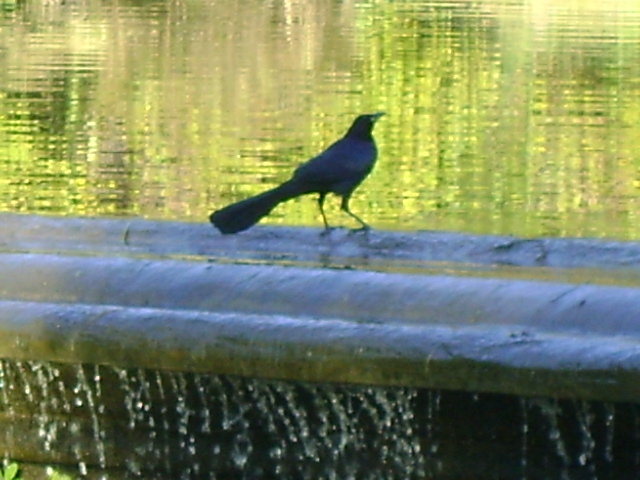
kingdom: Animalia
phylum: Chordata
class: Aves
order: Passeriformes
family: Icteridae
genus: Quiscalus
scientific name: Quiscalus mexicanus
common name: Great-tailed grackle
